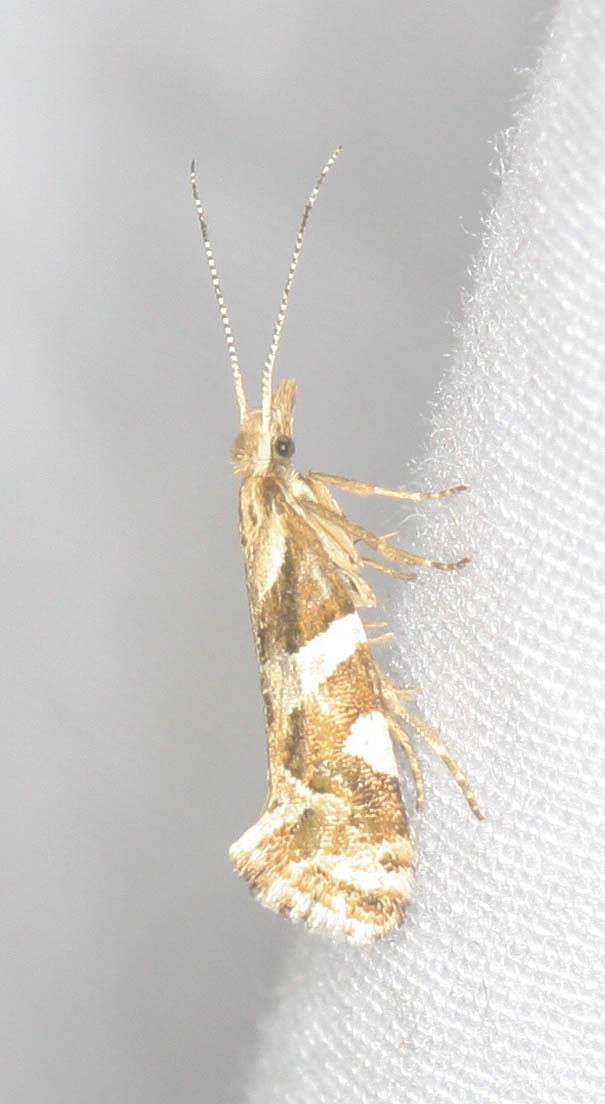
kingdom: Animalia
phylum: Arthropoda
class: Insecta
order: Lepidoptera
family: Plutellidae
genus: Eidophasia
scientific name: Eidophasia vanella
